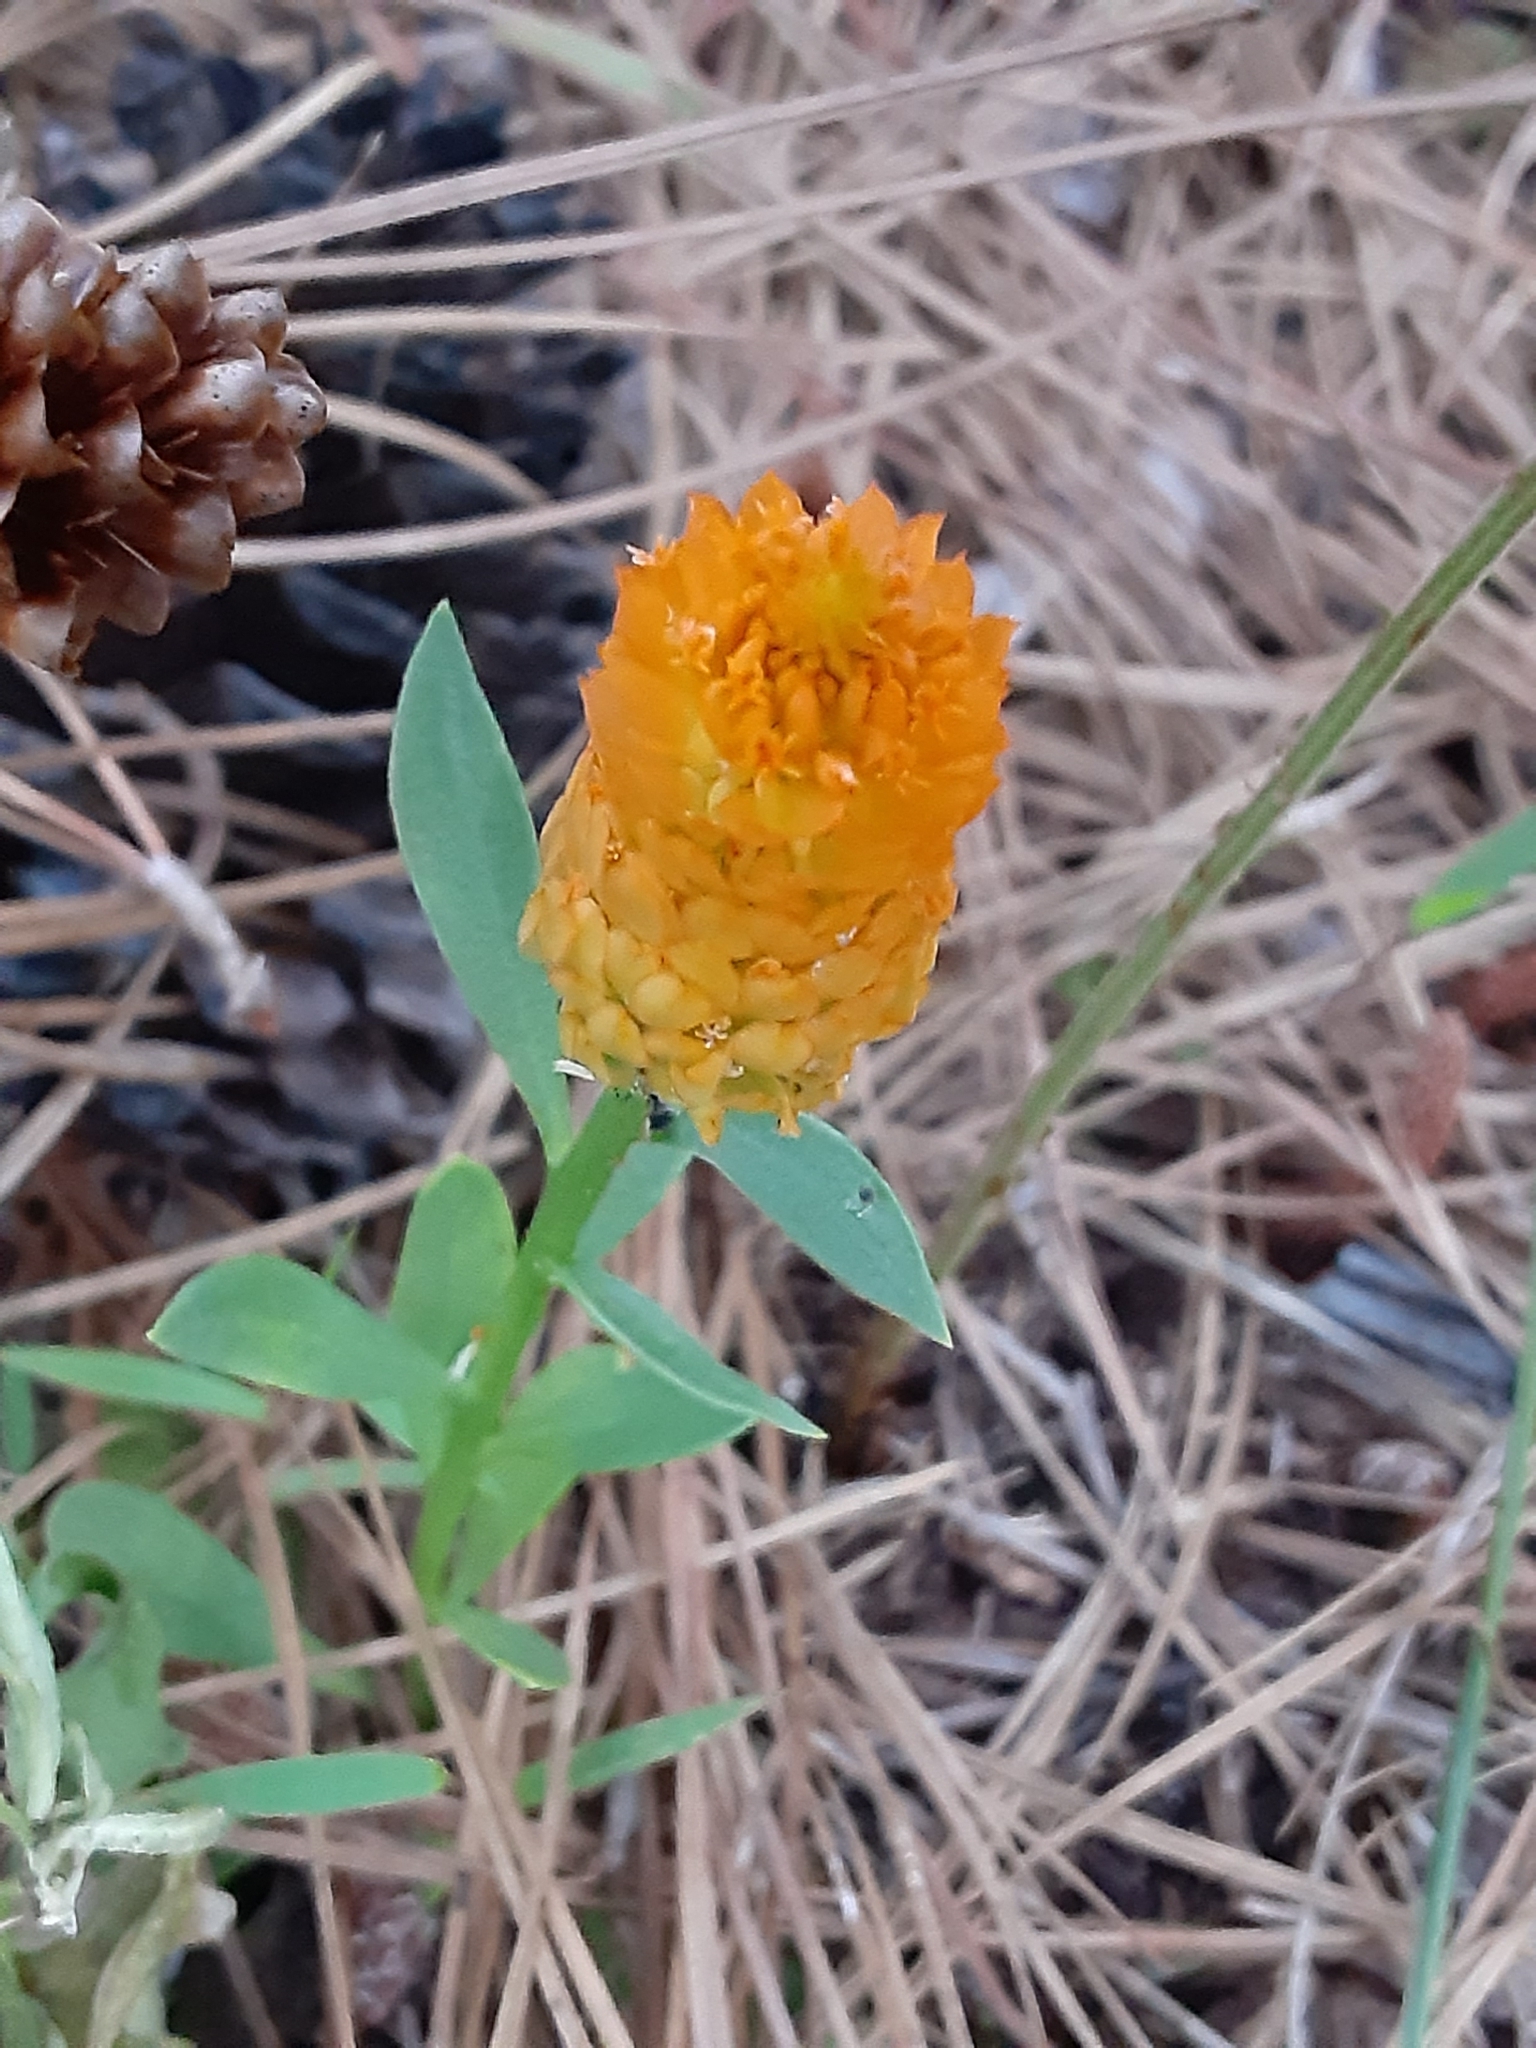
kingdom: Plantae
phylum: Tracheophyta
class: Magnoliopsida
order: Fabales
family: Polygalaceae
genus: Polygala
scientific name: Polygala lutea
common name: Orange milkwort
